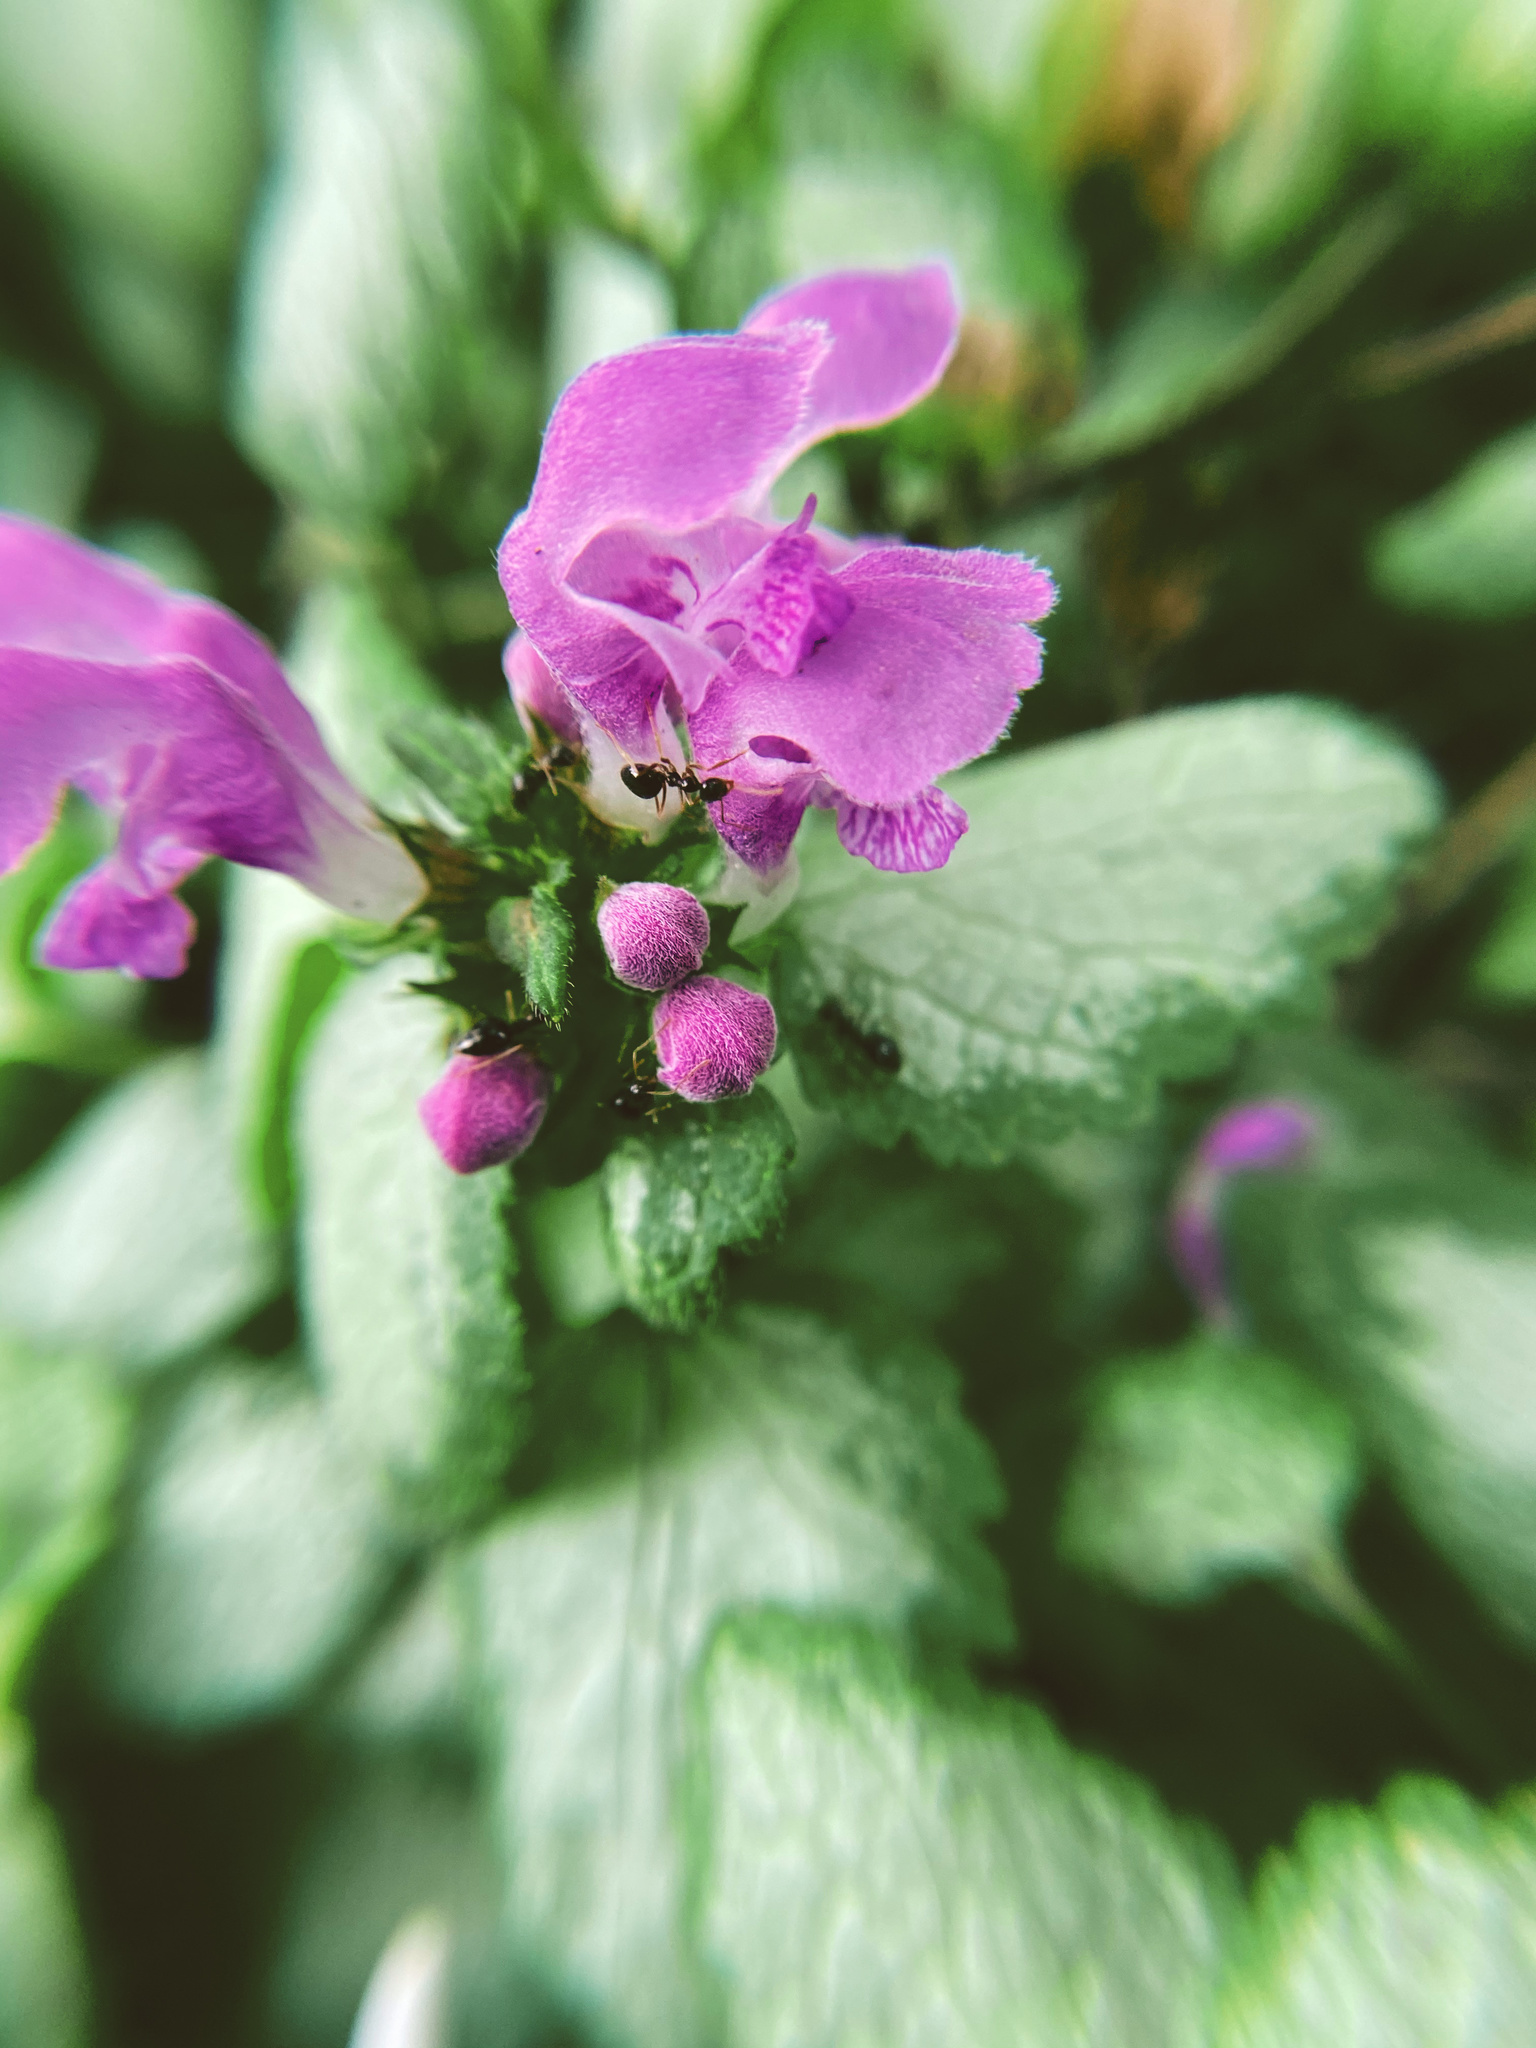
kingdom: Plantae
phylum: Tracheophyta
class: Magnoliopsida
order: Lamiales
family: Lamiaceae
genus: Lamium
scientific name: Lamium maculatum
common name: Spotted dead-nettle
